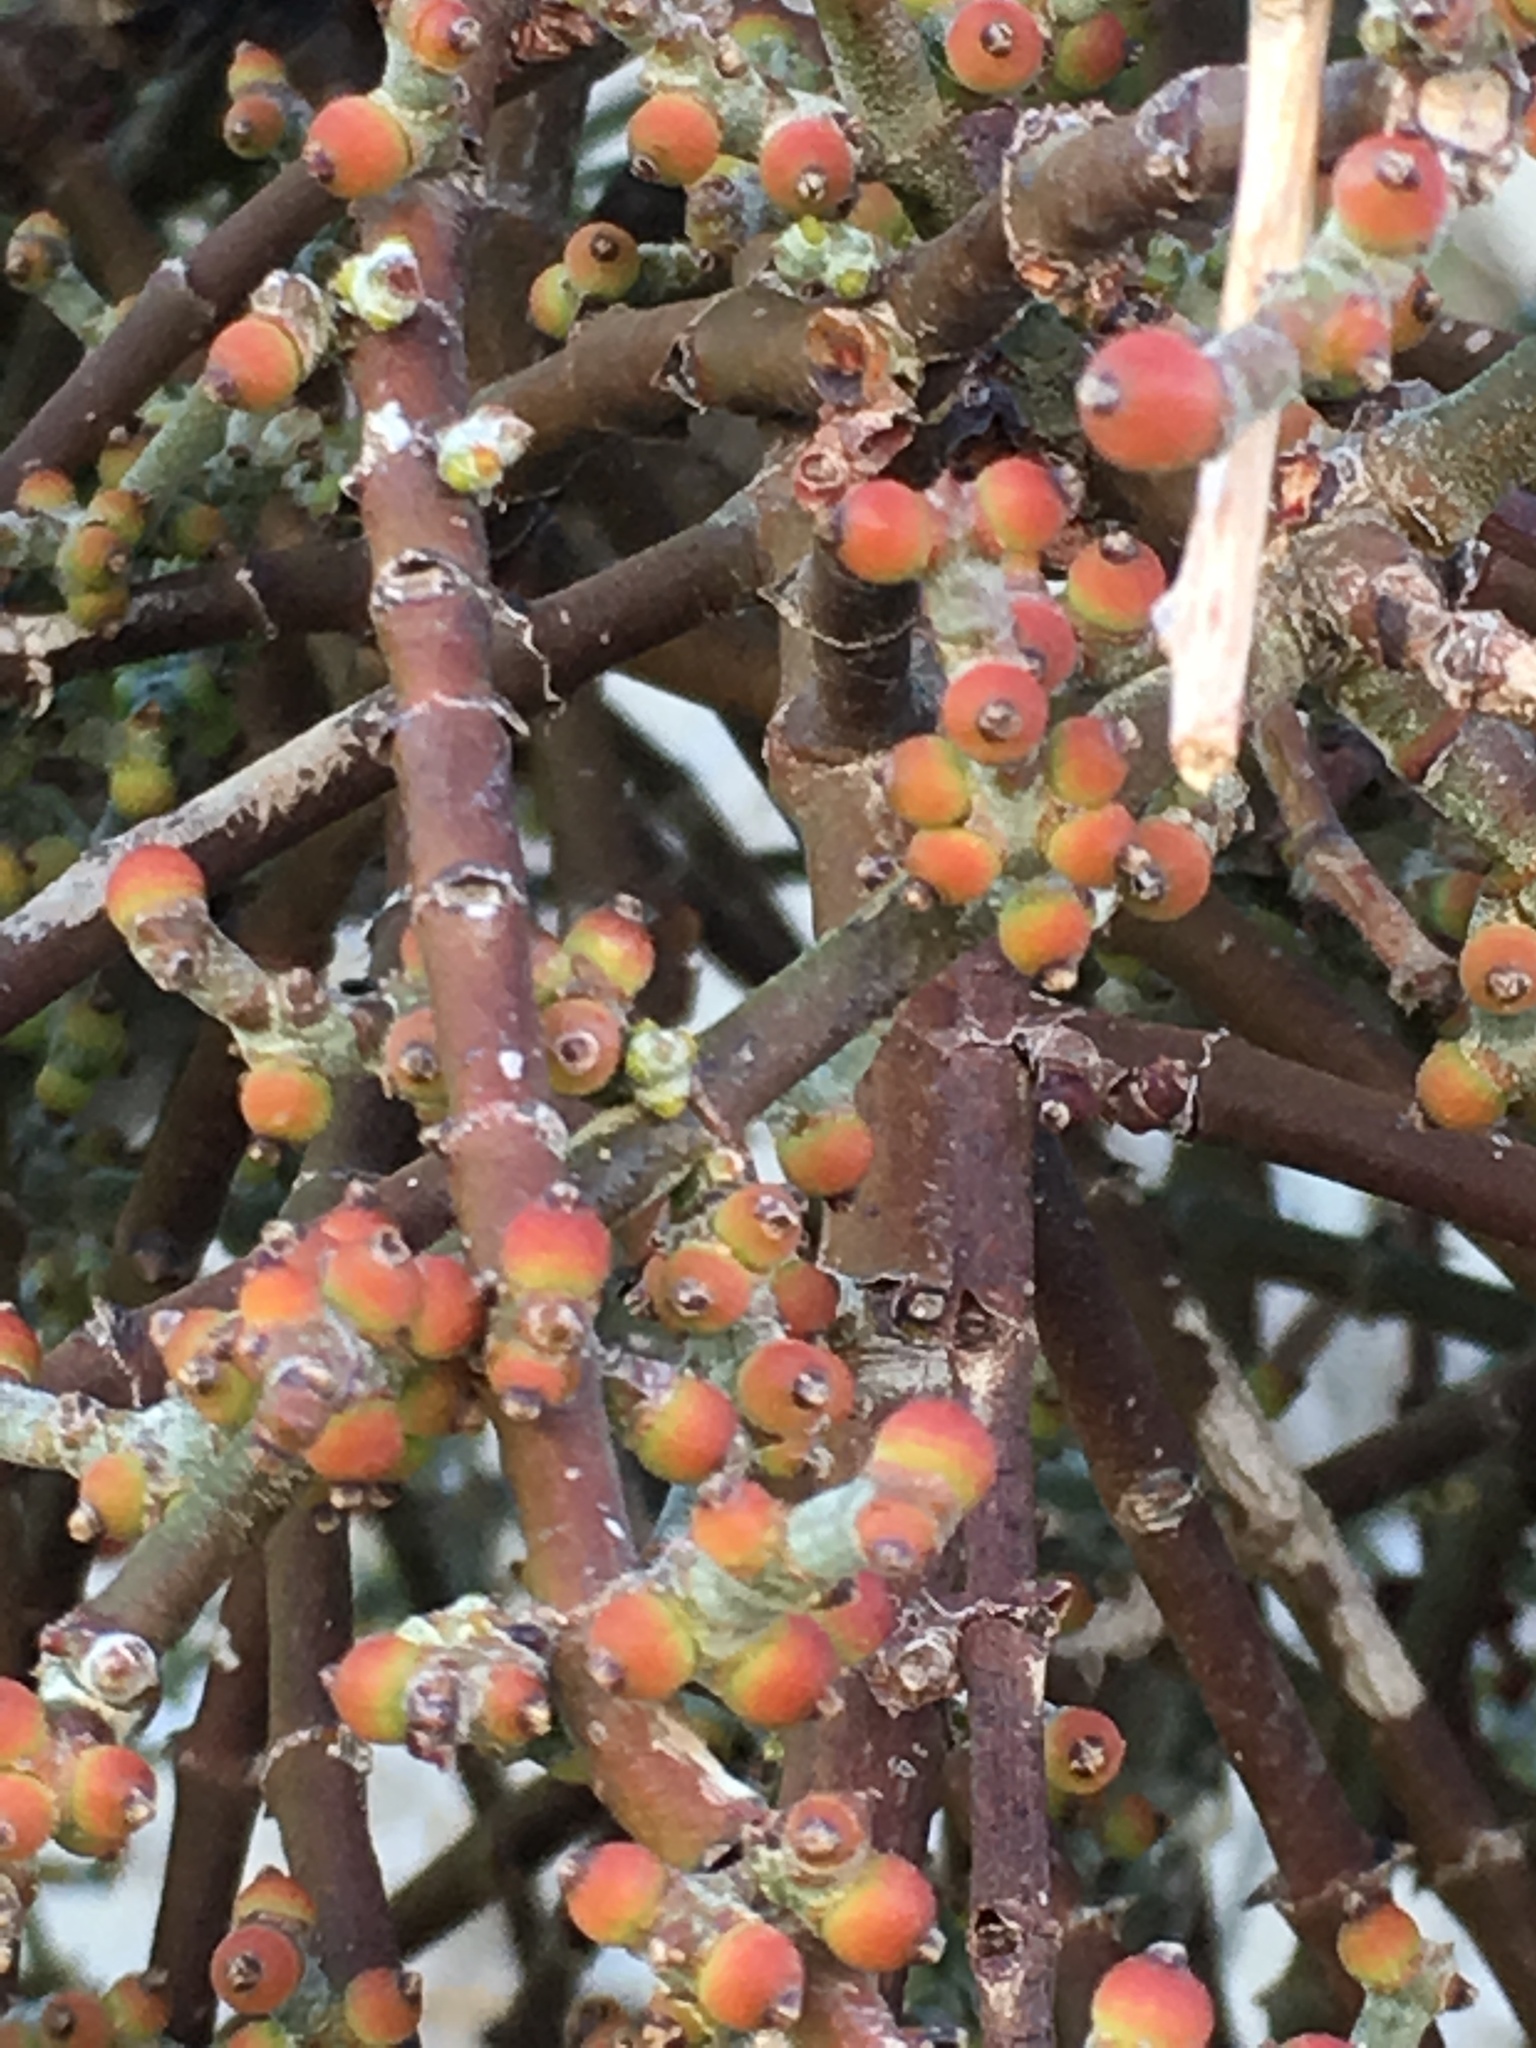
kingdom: Plantae
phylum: Tracheophyta
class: Magnoliopsida
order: Santalales
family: Viscaceae
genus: Phoradendron
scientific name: Phoradendron californicum
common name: Acacia mistletoe
